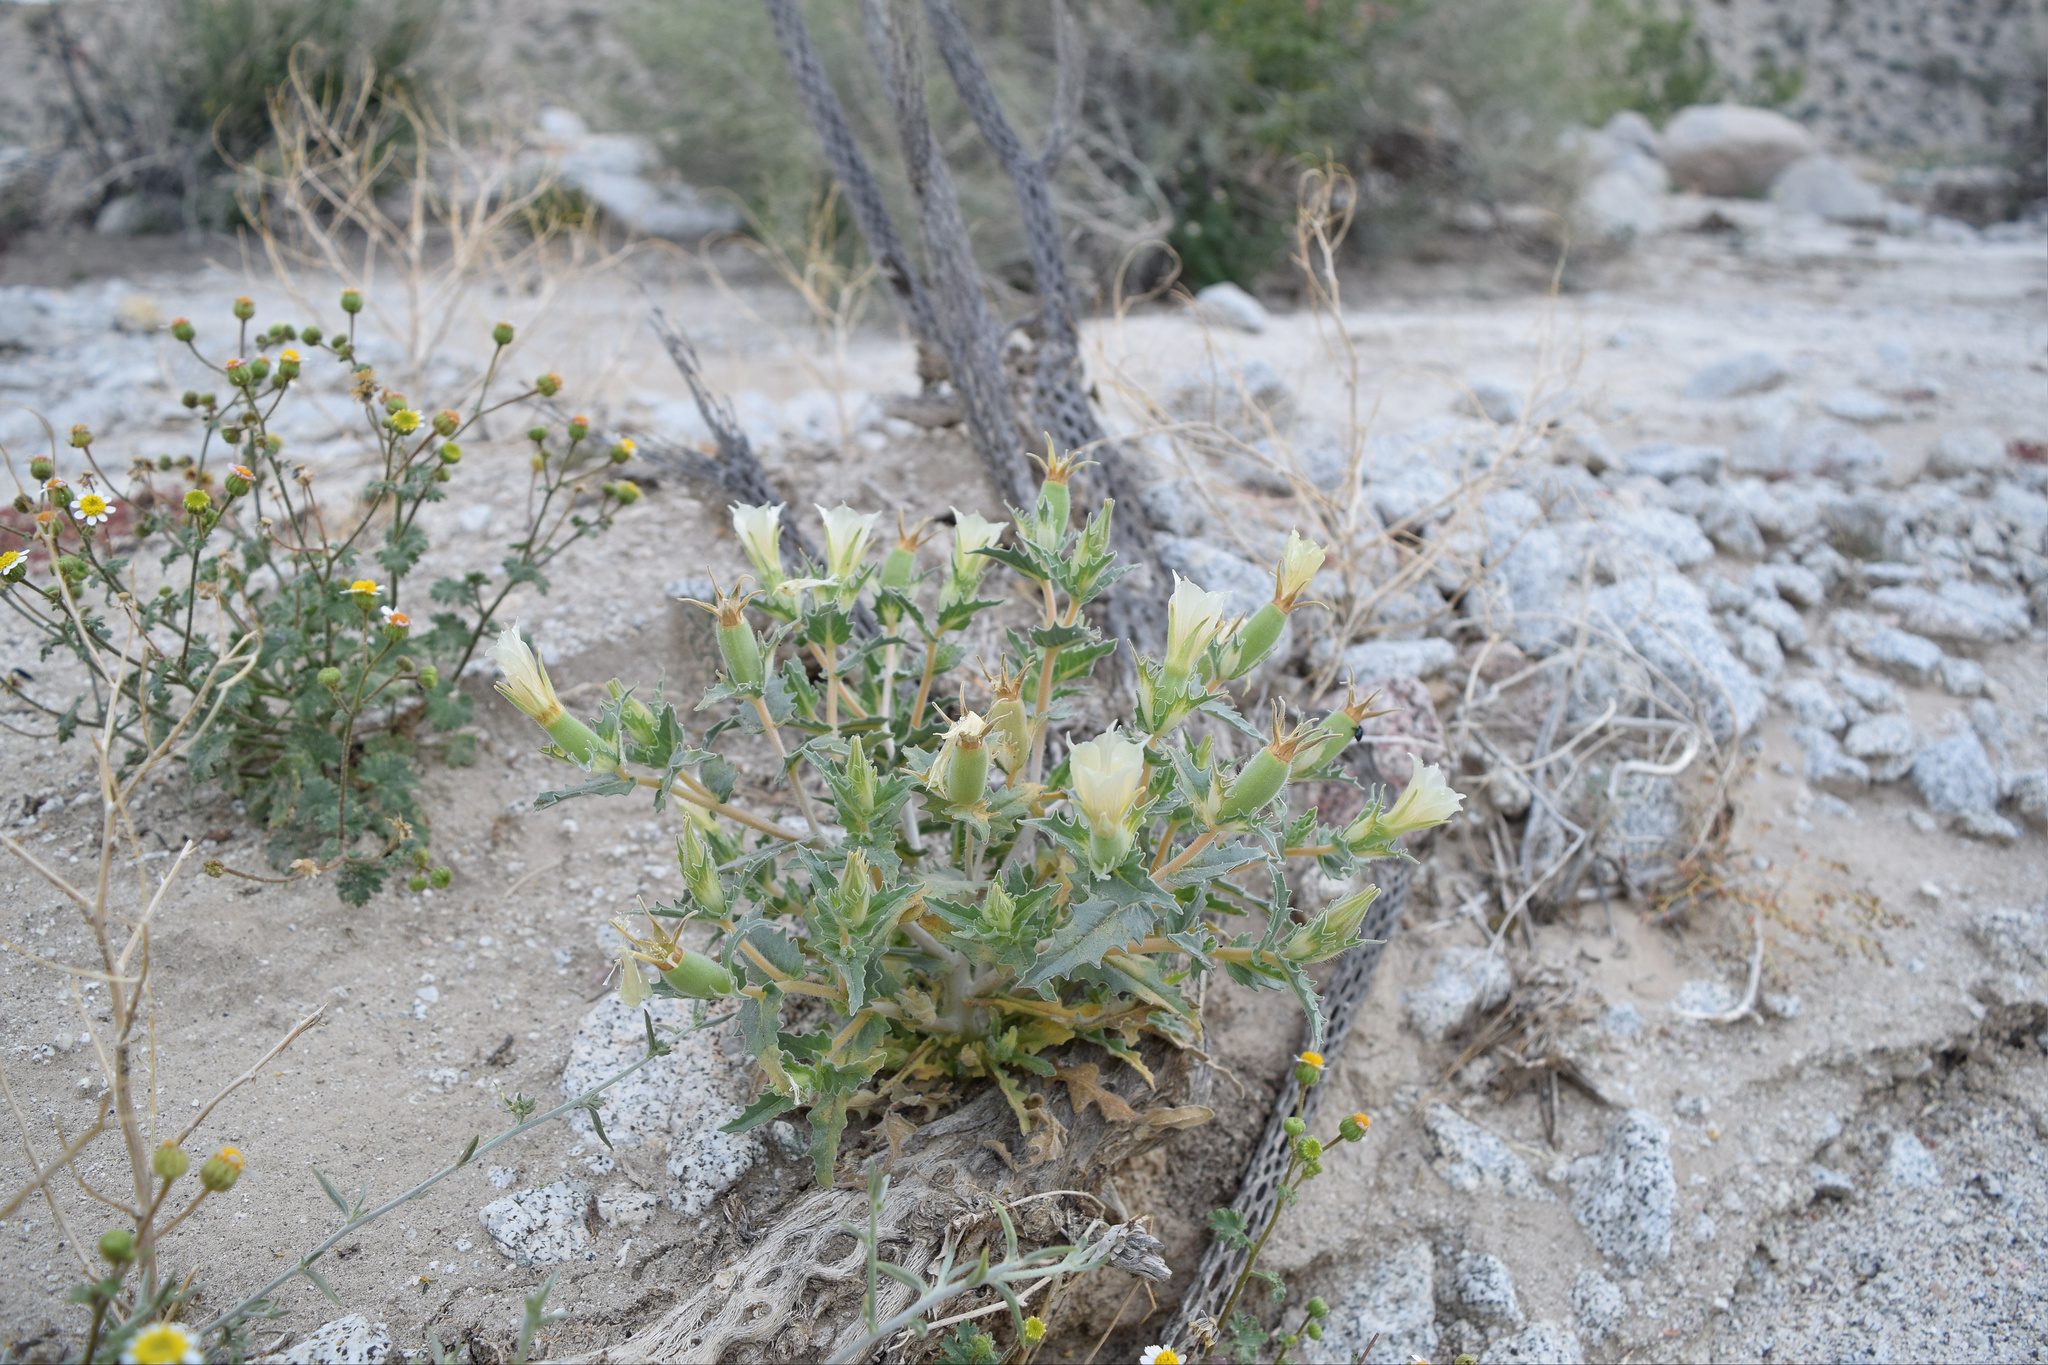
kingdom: Plantae
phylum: Tracheophyta
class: Magnoliopsida
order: Cornales
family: Loasaceae
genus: Mentzelia
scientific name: Mentzelia involucrata
